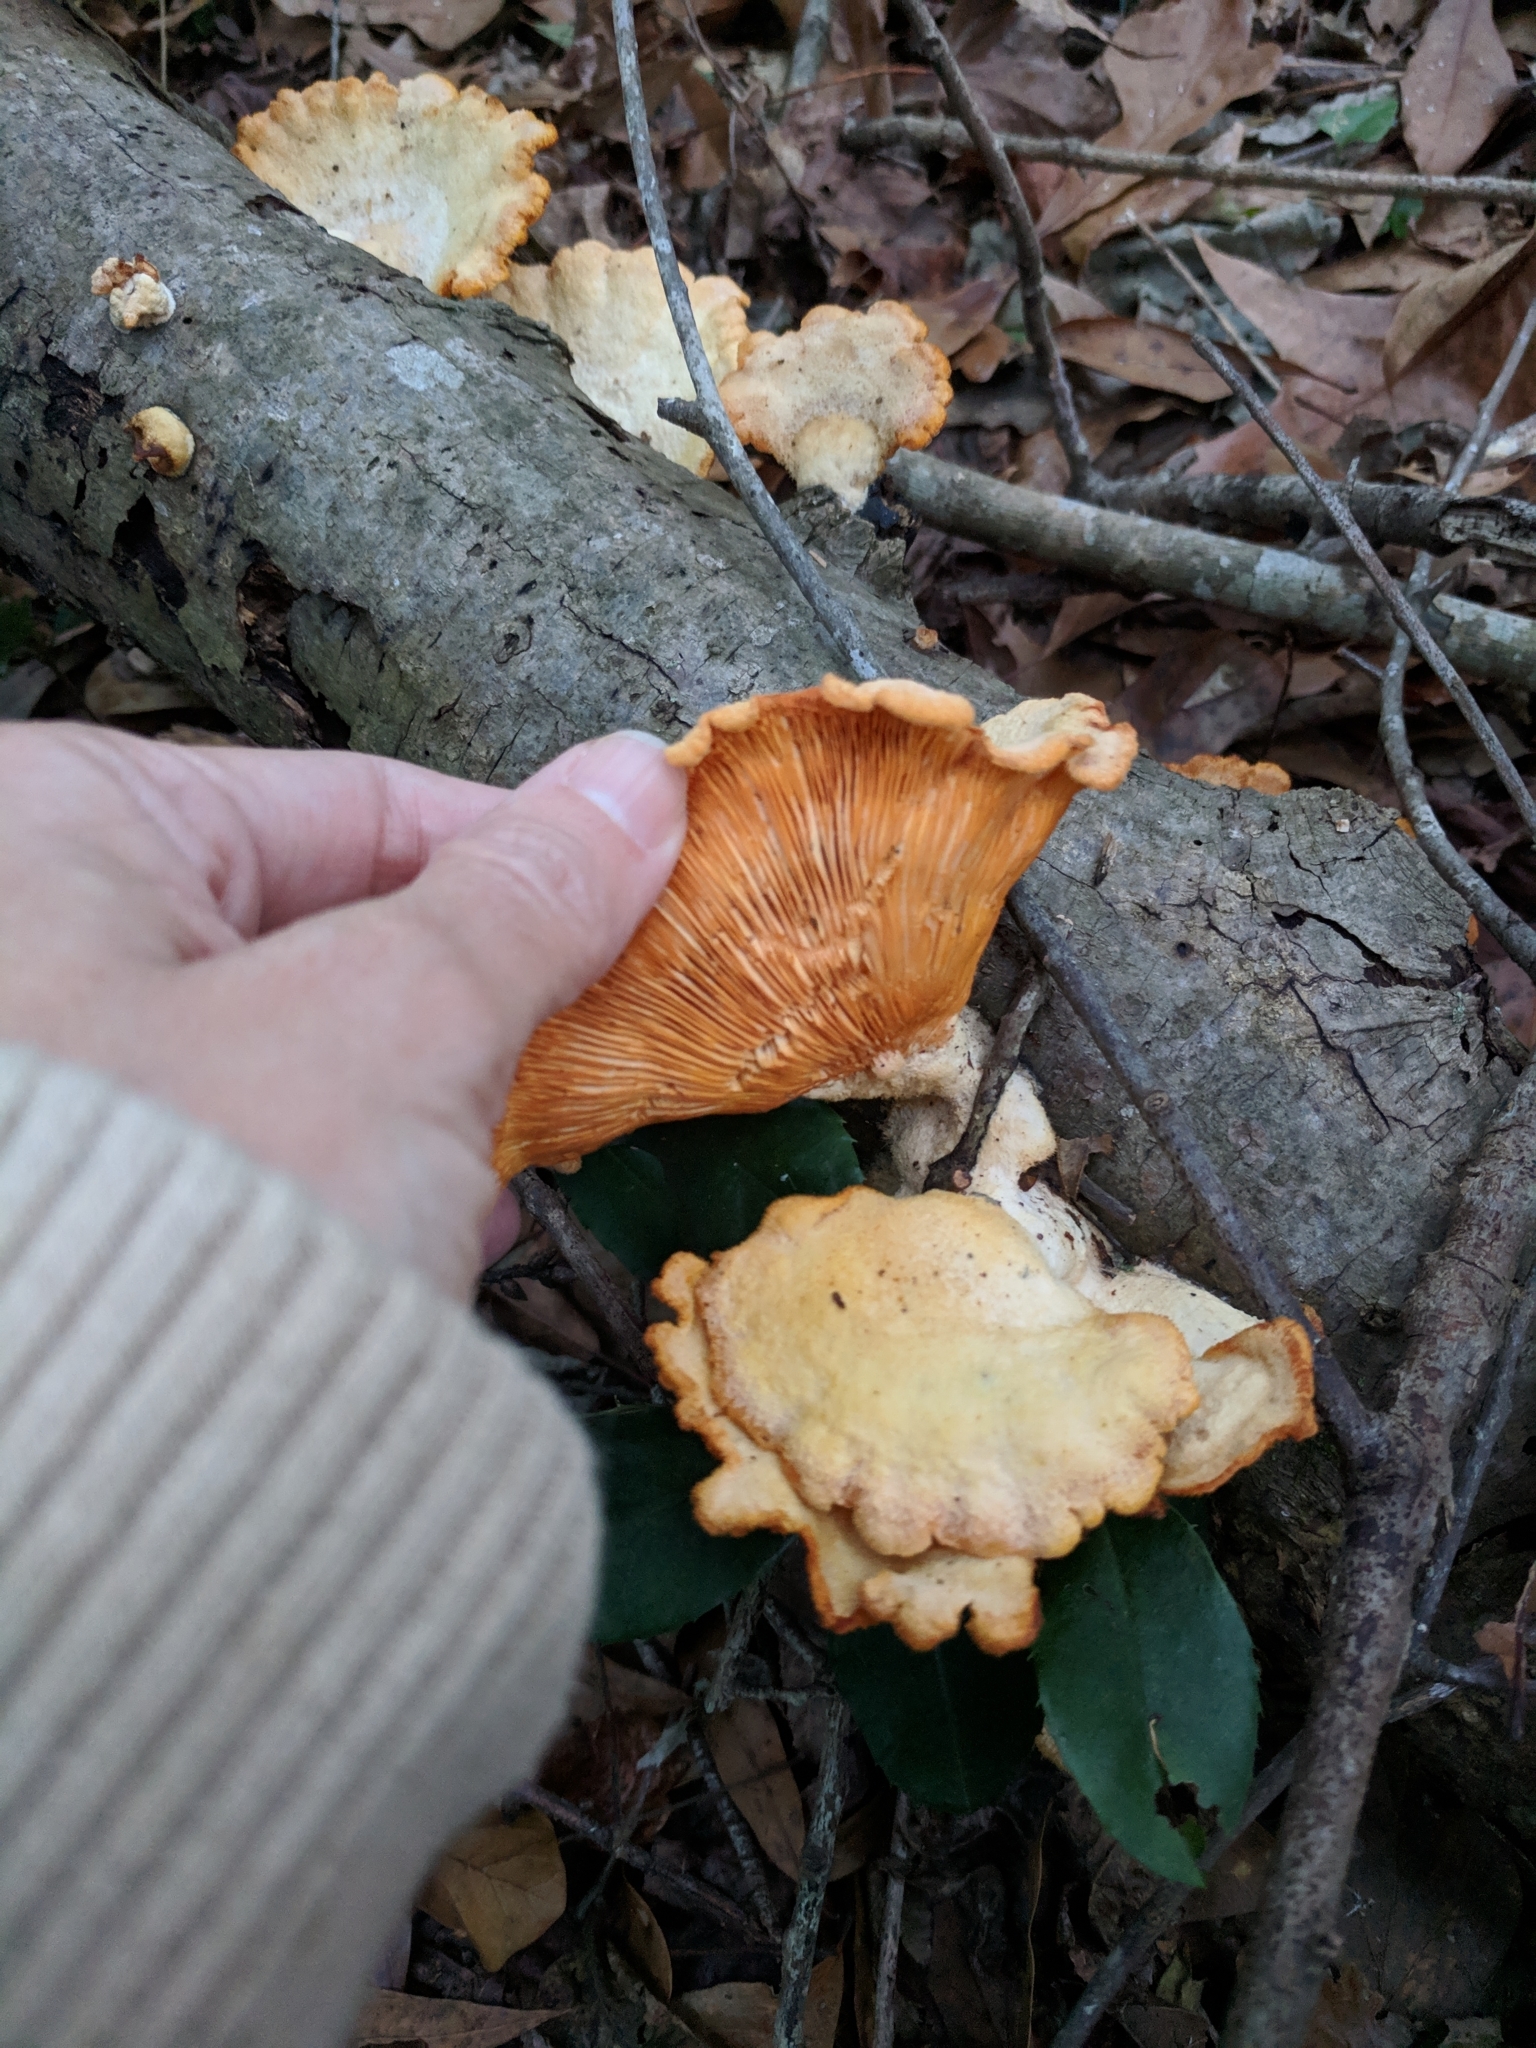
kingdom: Fungi
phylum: Basidiomycota
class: Agaricomycetes
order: Agaricales
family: Phyllotopsidaceae
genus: Phyllotopsis
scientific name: Phyllotopsis nidulans
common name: Orange mock oyster
